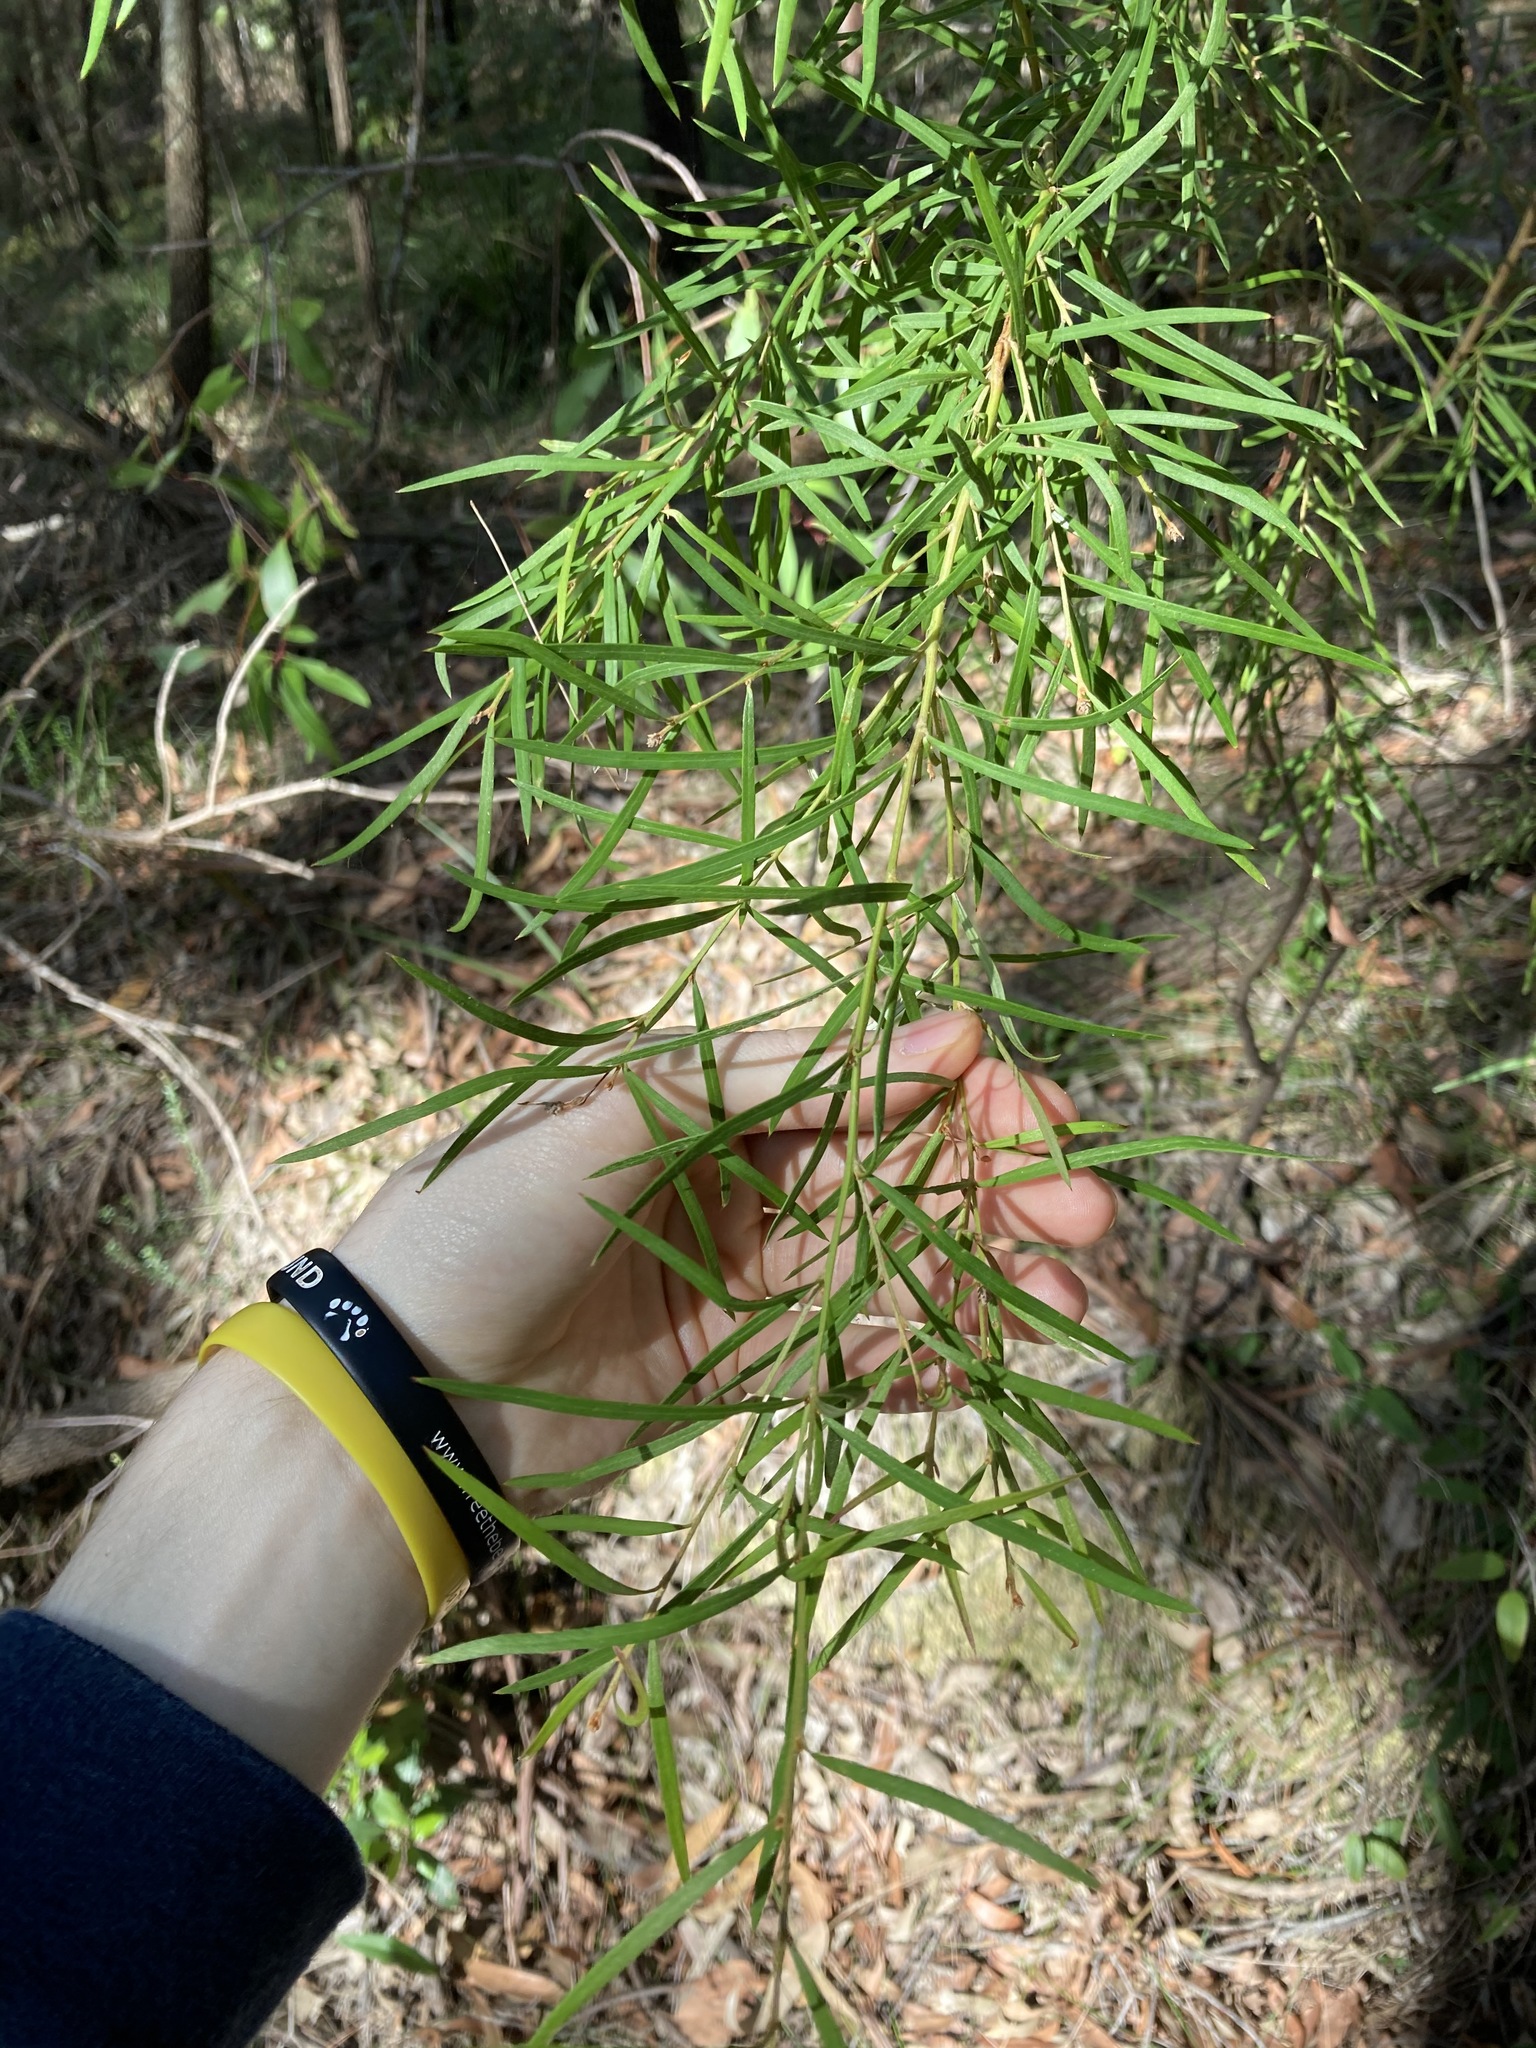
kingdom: Plantae
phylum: Tracheophyta
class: Magnoliopsida
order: Proteales
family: Proteaceae
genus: Grevillea
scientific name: Grevillea linearifolia
